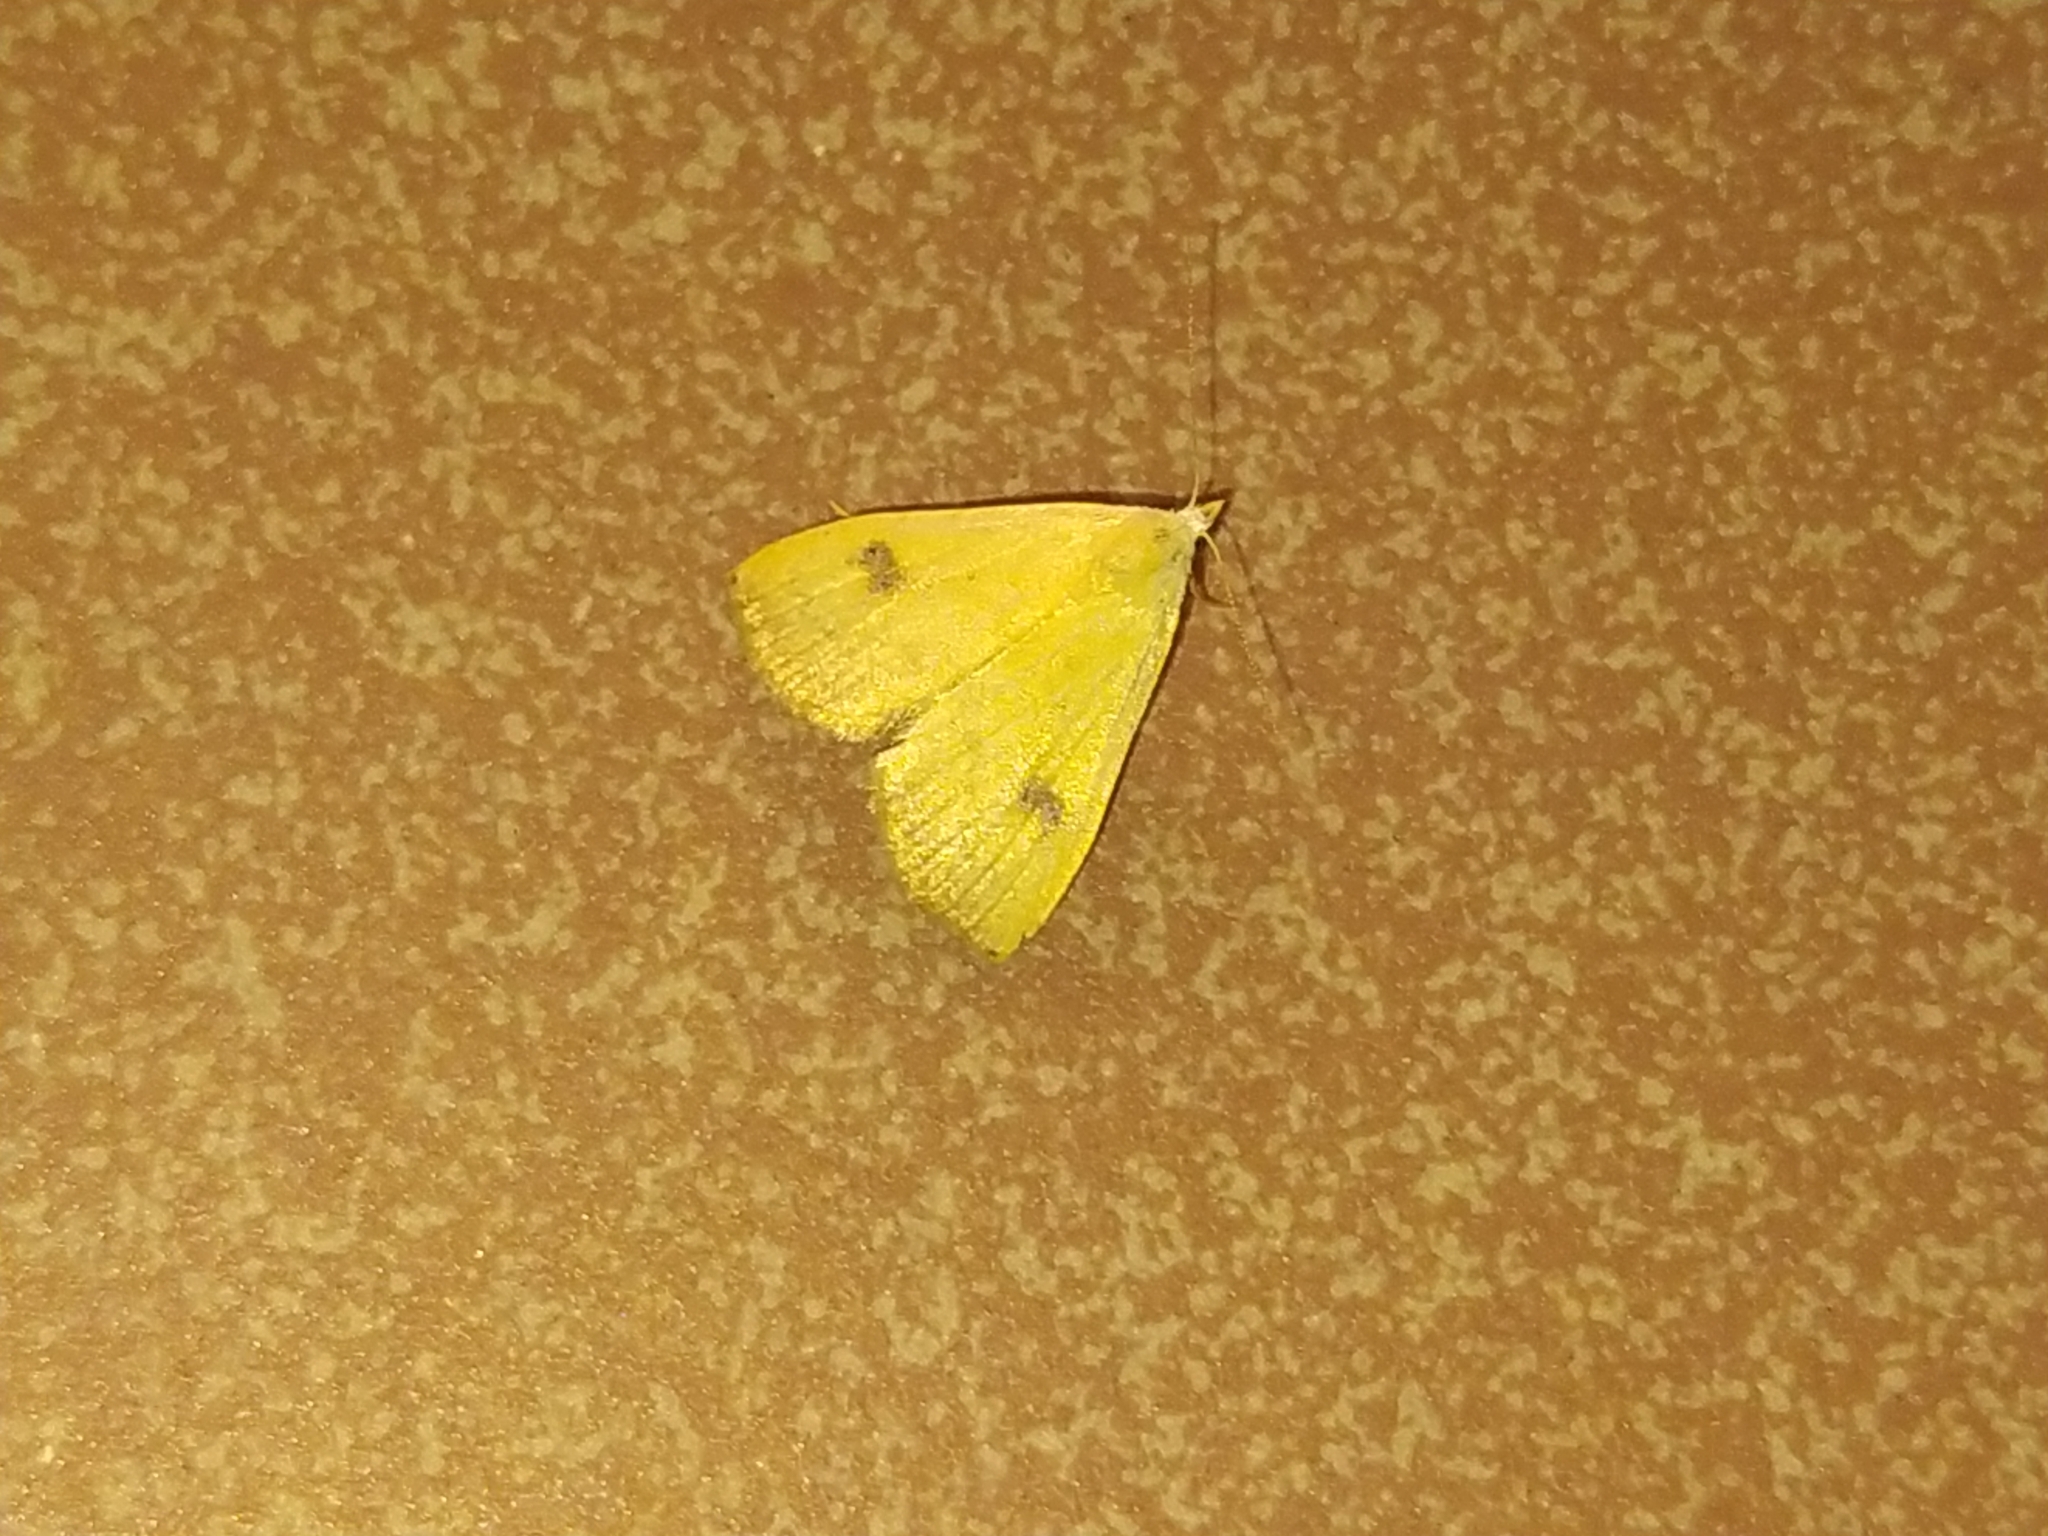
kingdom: Animalia
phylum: Arthropoda
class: Insecta
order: Lepidoptera
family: Erebidae
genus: Rivula
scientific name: Rivula sericealis
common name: Straw dot
